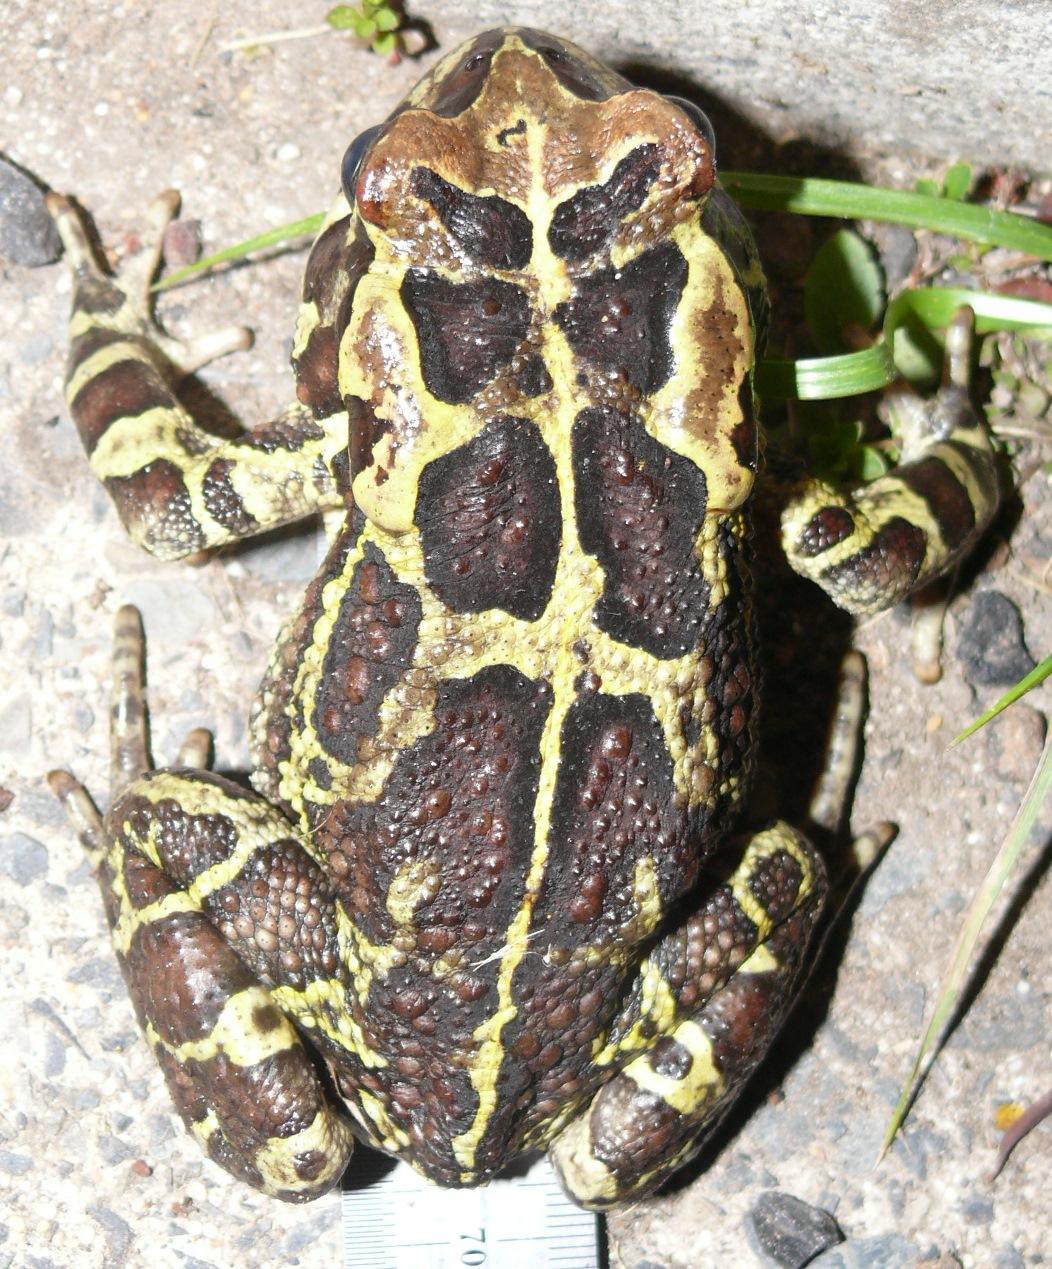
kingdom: Animalia
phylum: Chordata
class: Amphibia
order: Anura
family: Bufonidae
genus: Sclerophrys
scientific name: Sclerophrys pantherina
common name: Panther toad
